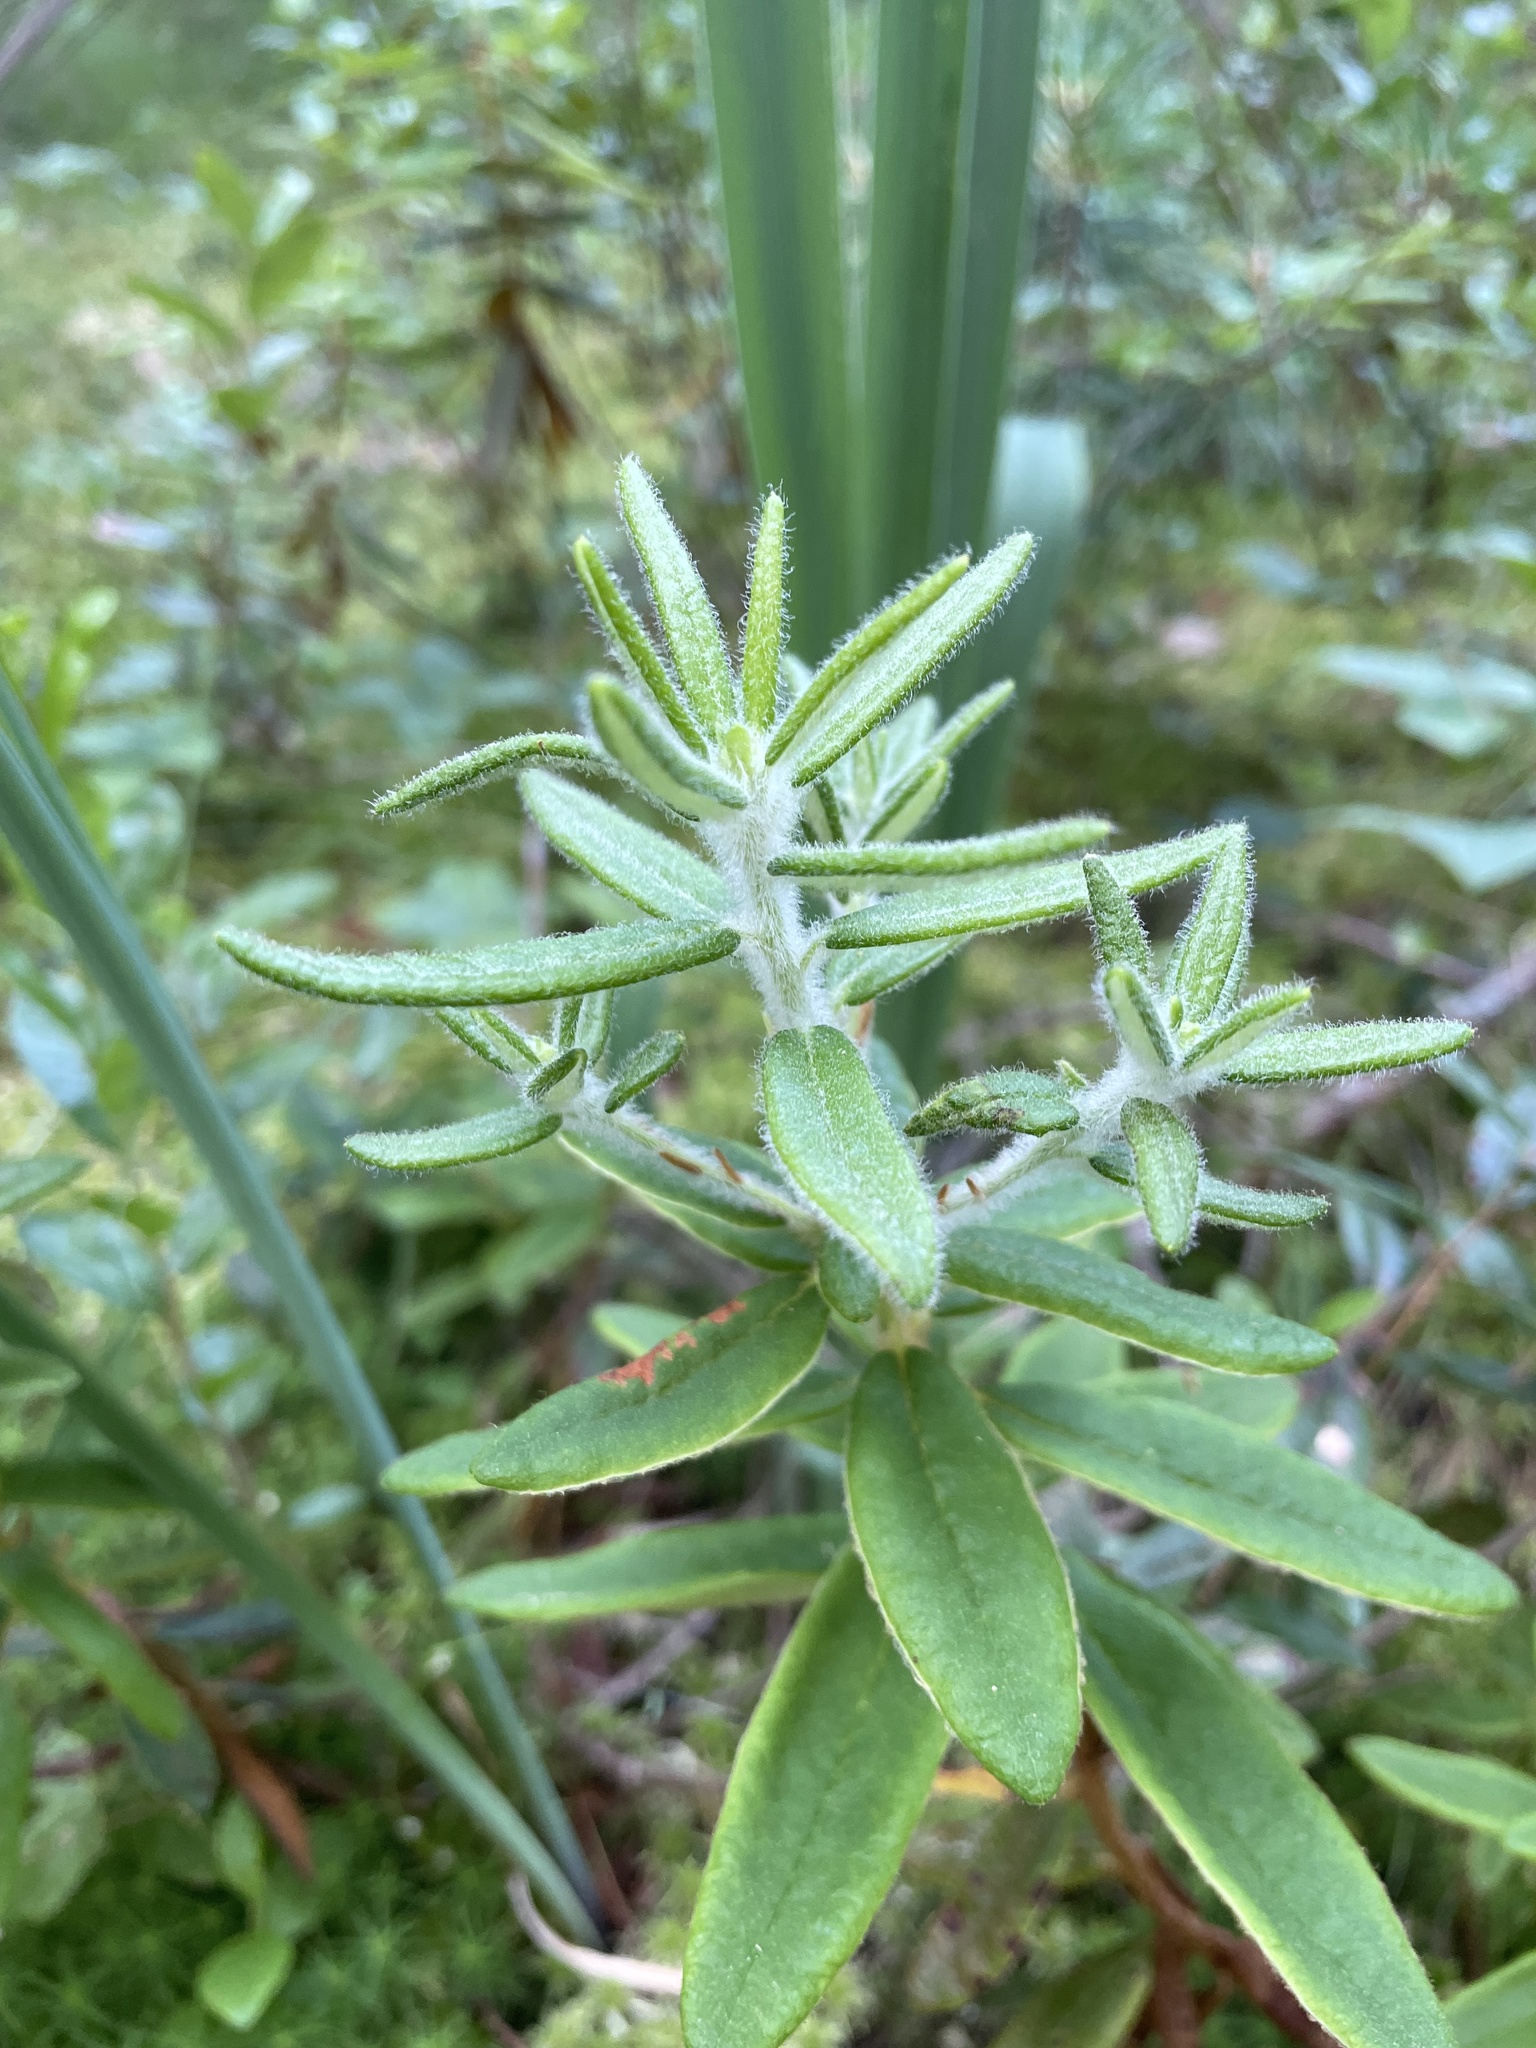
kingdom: Plantae
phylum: Tracheophyta
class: Magnoliopsida
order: Ericales
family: Ericaceae
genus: Rhododendron
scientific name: Rhododendron groenlandicum
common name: Bog labrador tea
